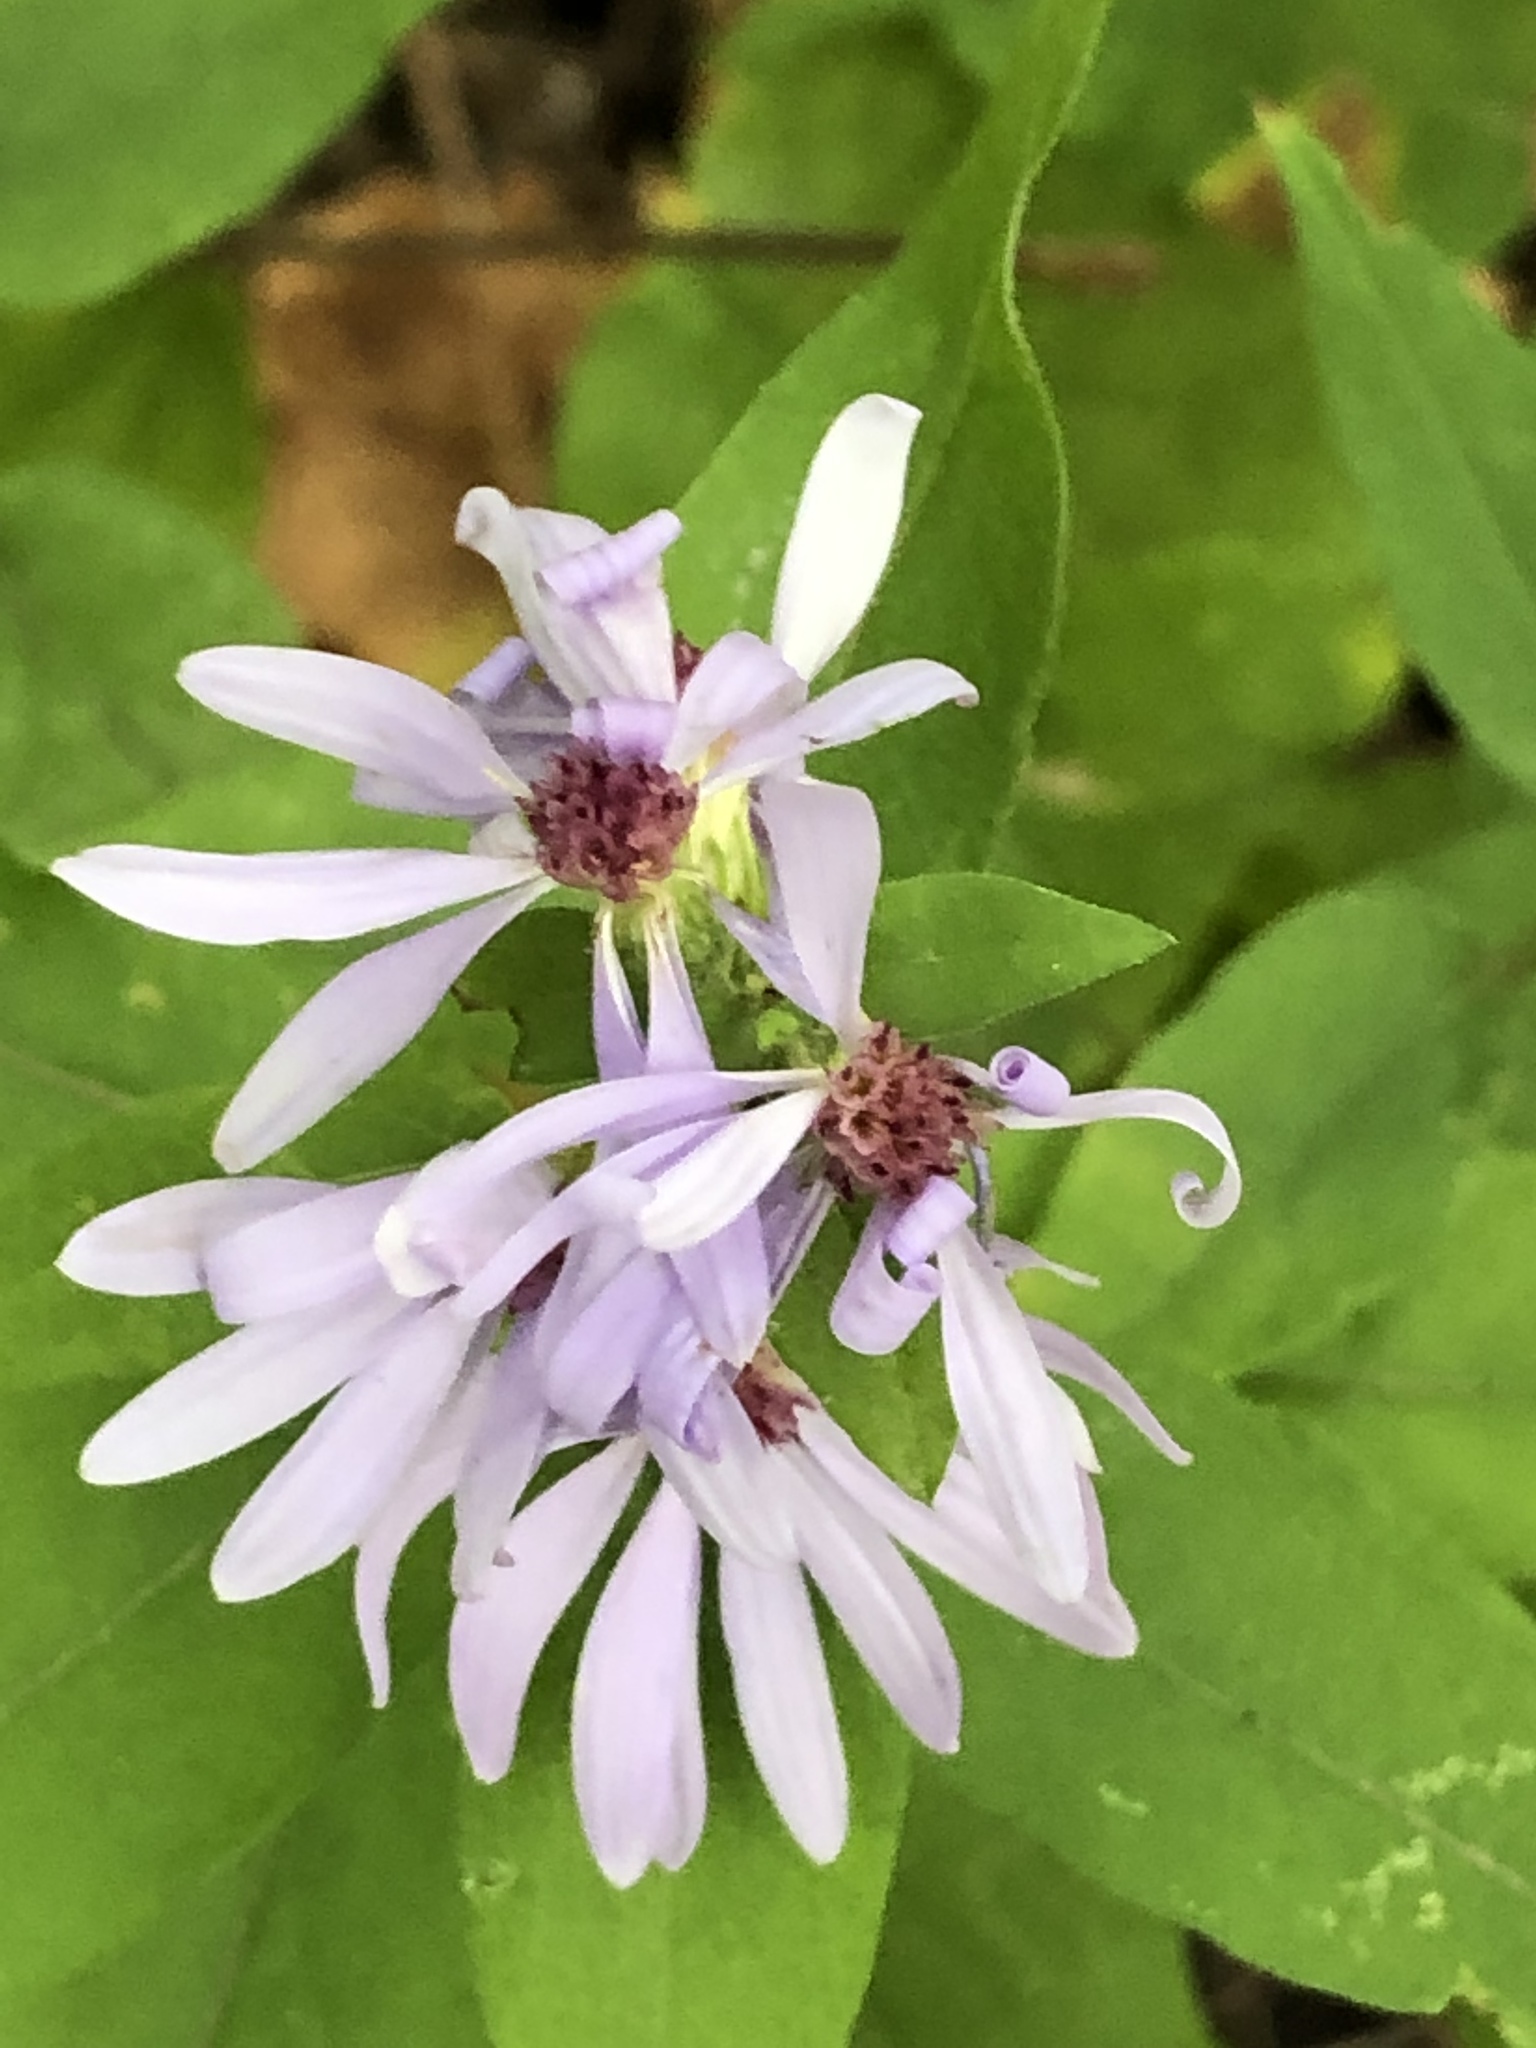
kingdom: Plantae
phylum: Tracheophyta
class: Magnoliopsida
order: Asterales
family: Asteraceae
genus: Symphyotrichum
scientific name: Symphyotrichum shortii
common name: Short's aster
